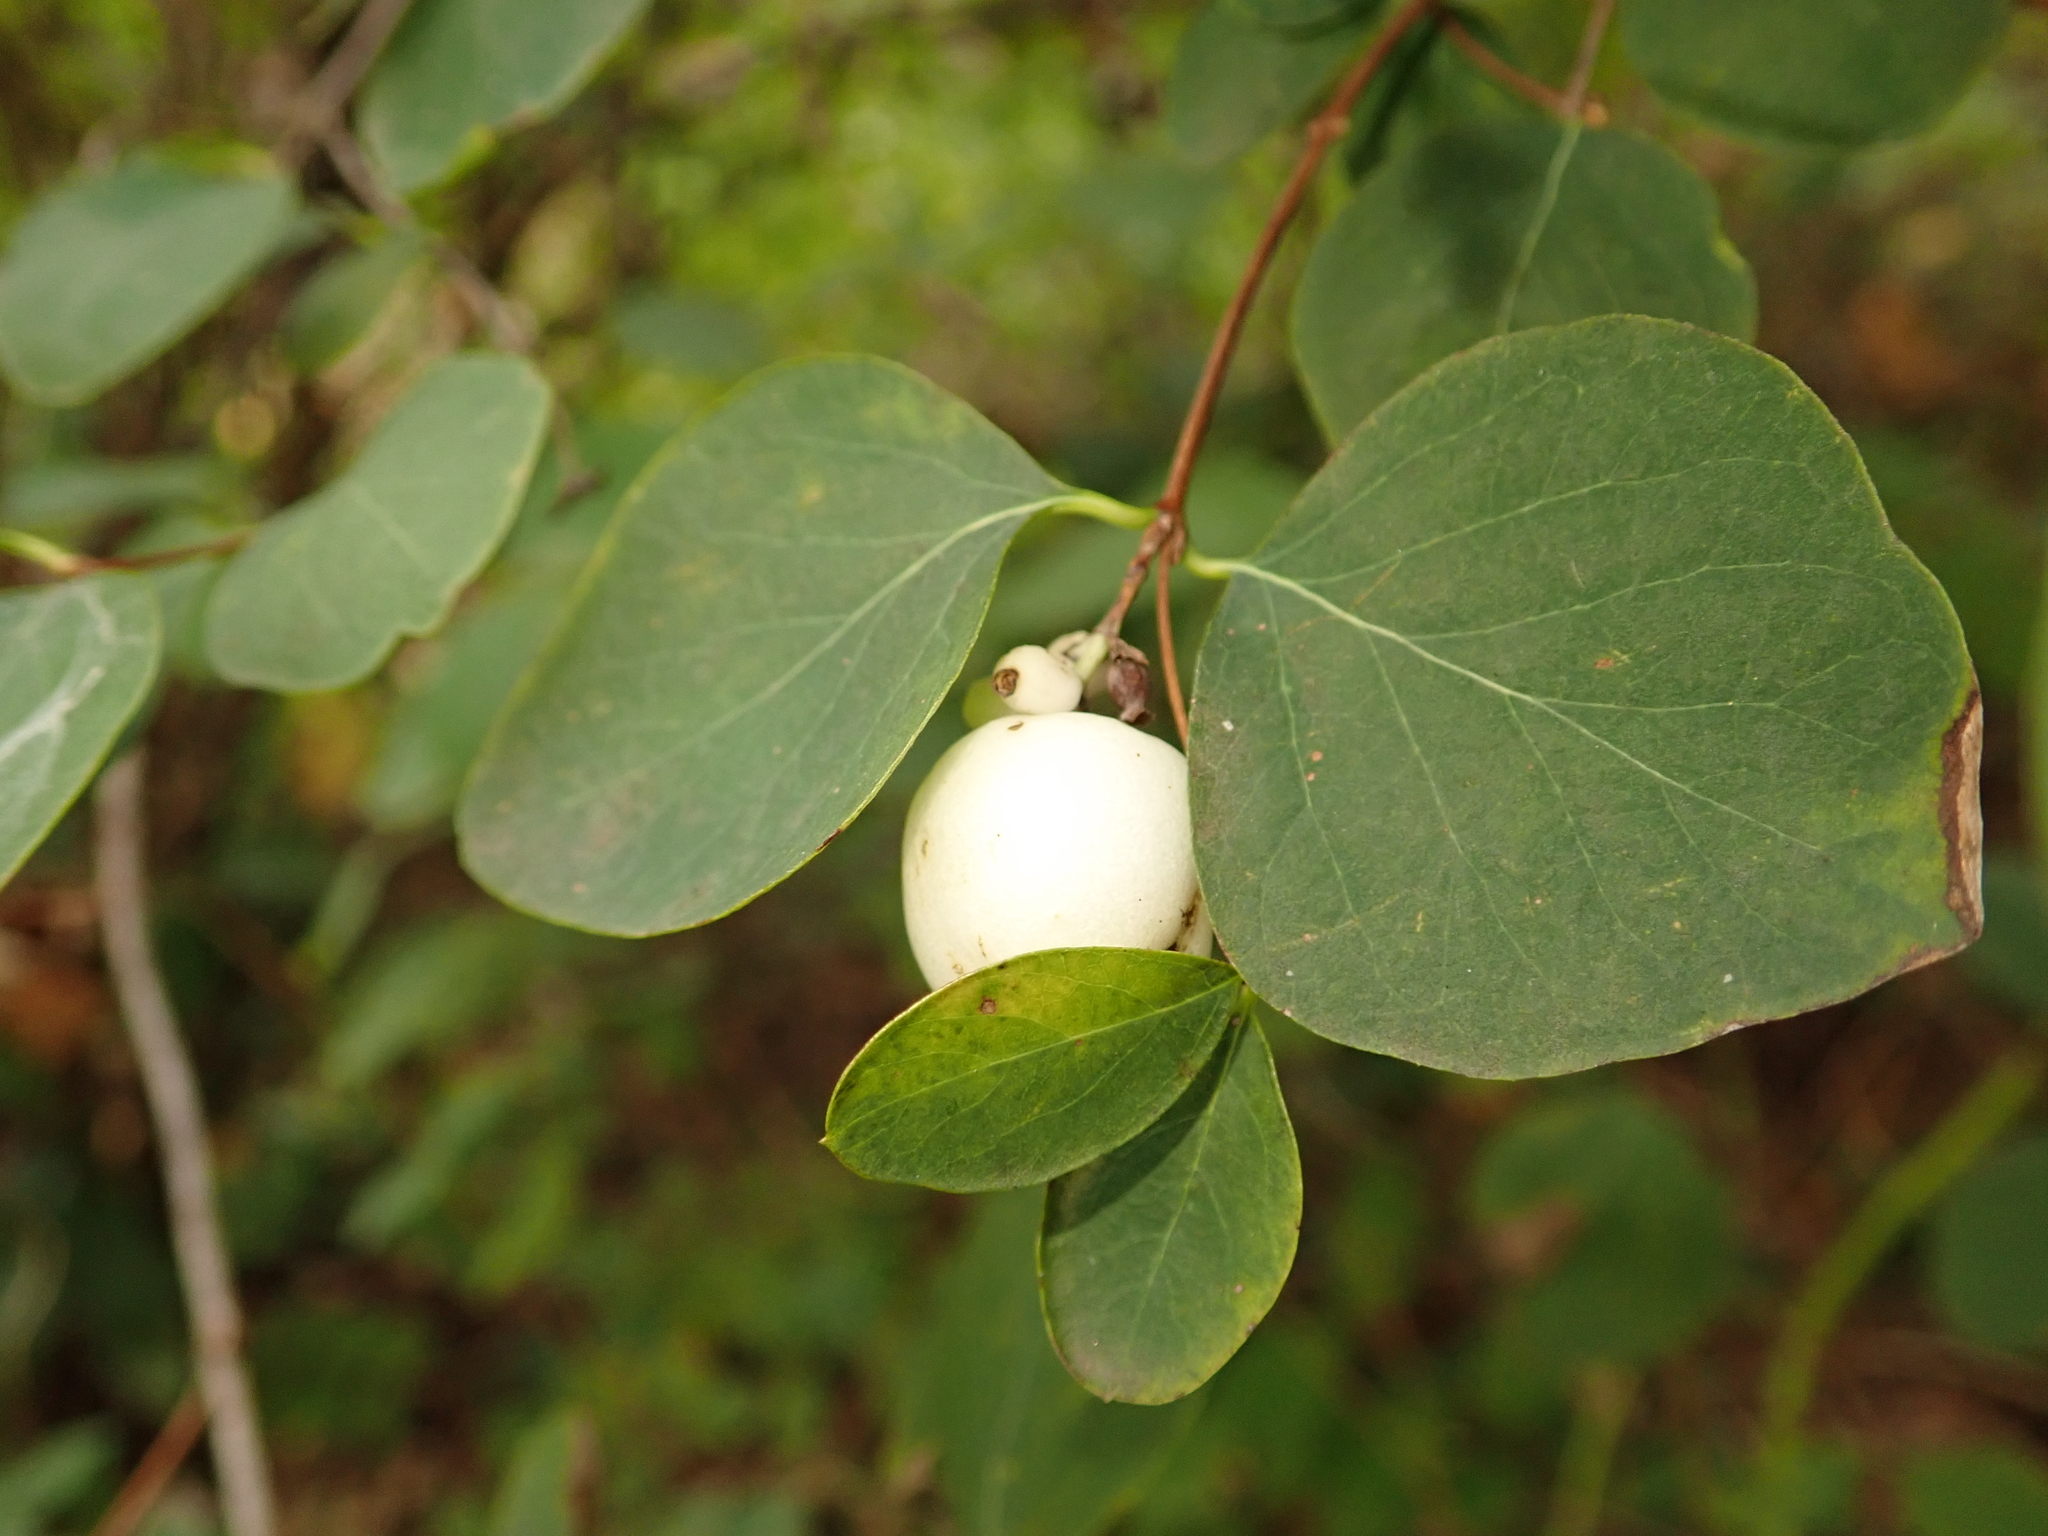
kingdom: Plantae
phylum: Tracheophyta
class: Magnoliopsida
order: Dipsacales
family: Caprifoliaceae
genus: Symphoricarpos
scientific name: Symphoricarpos albus
